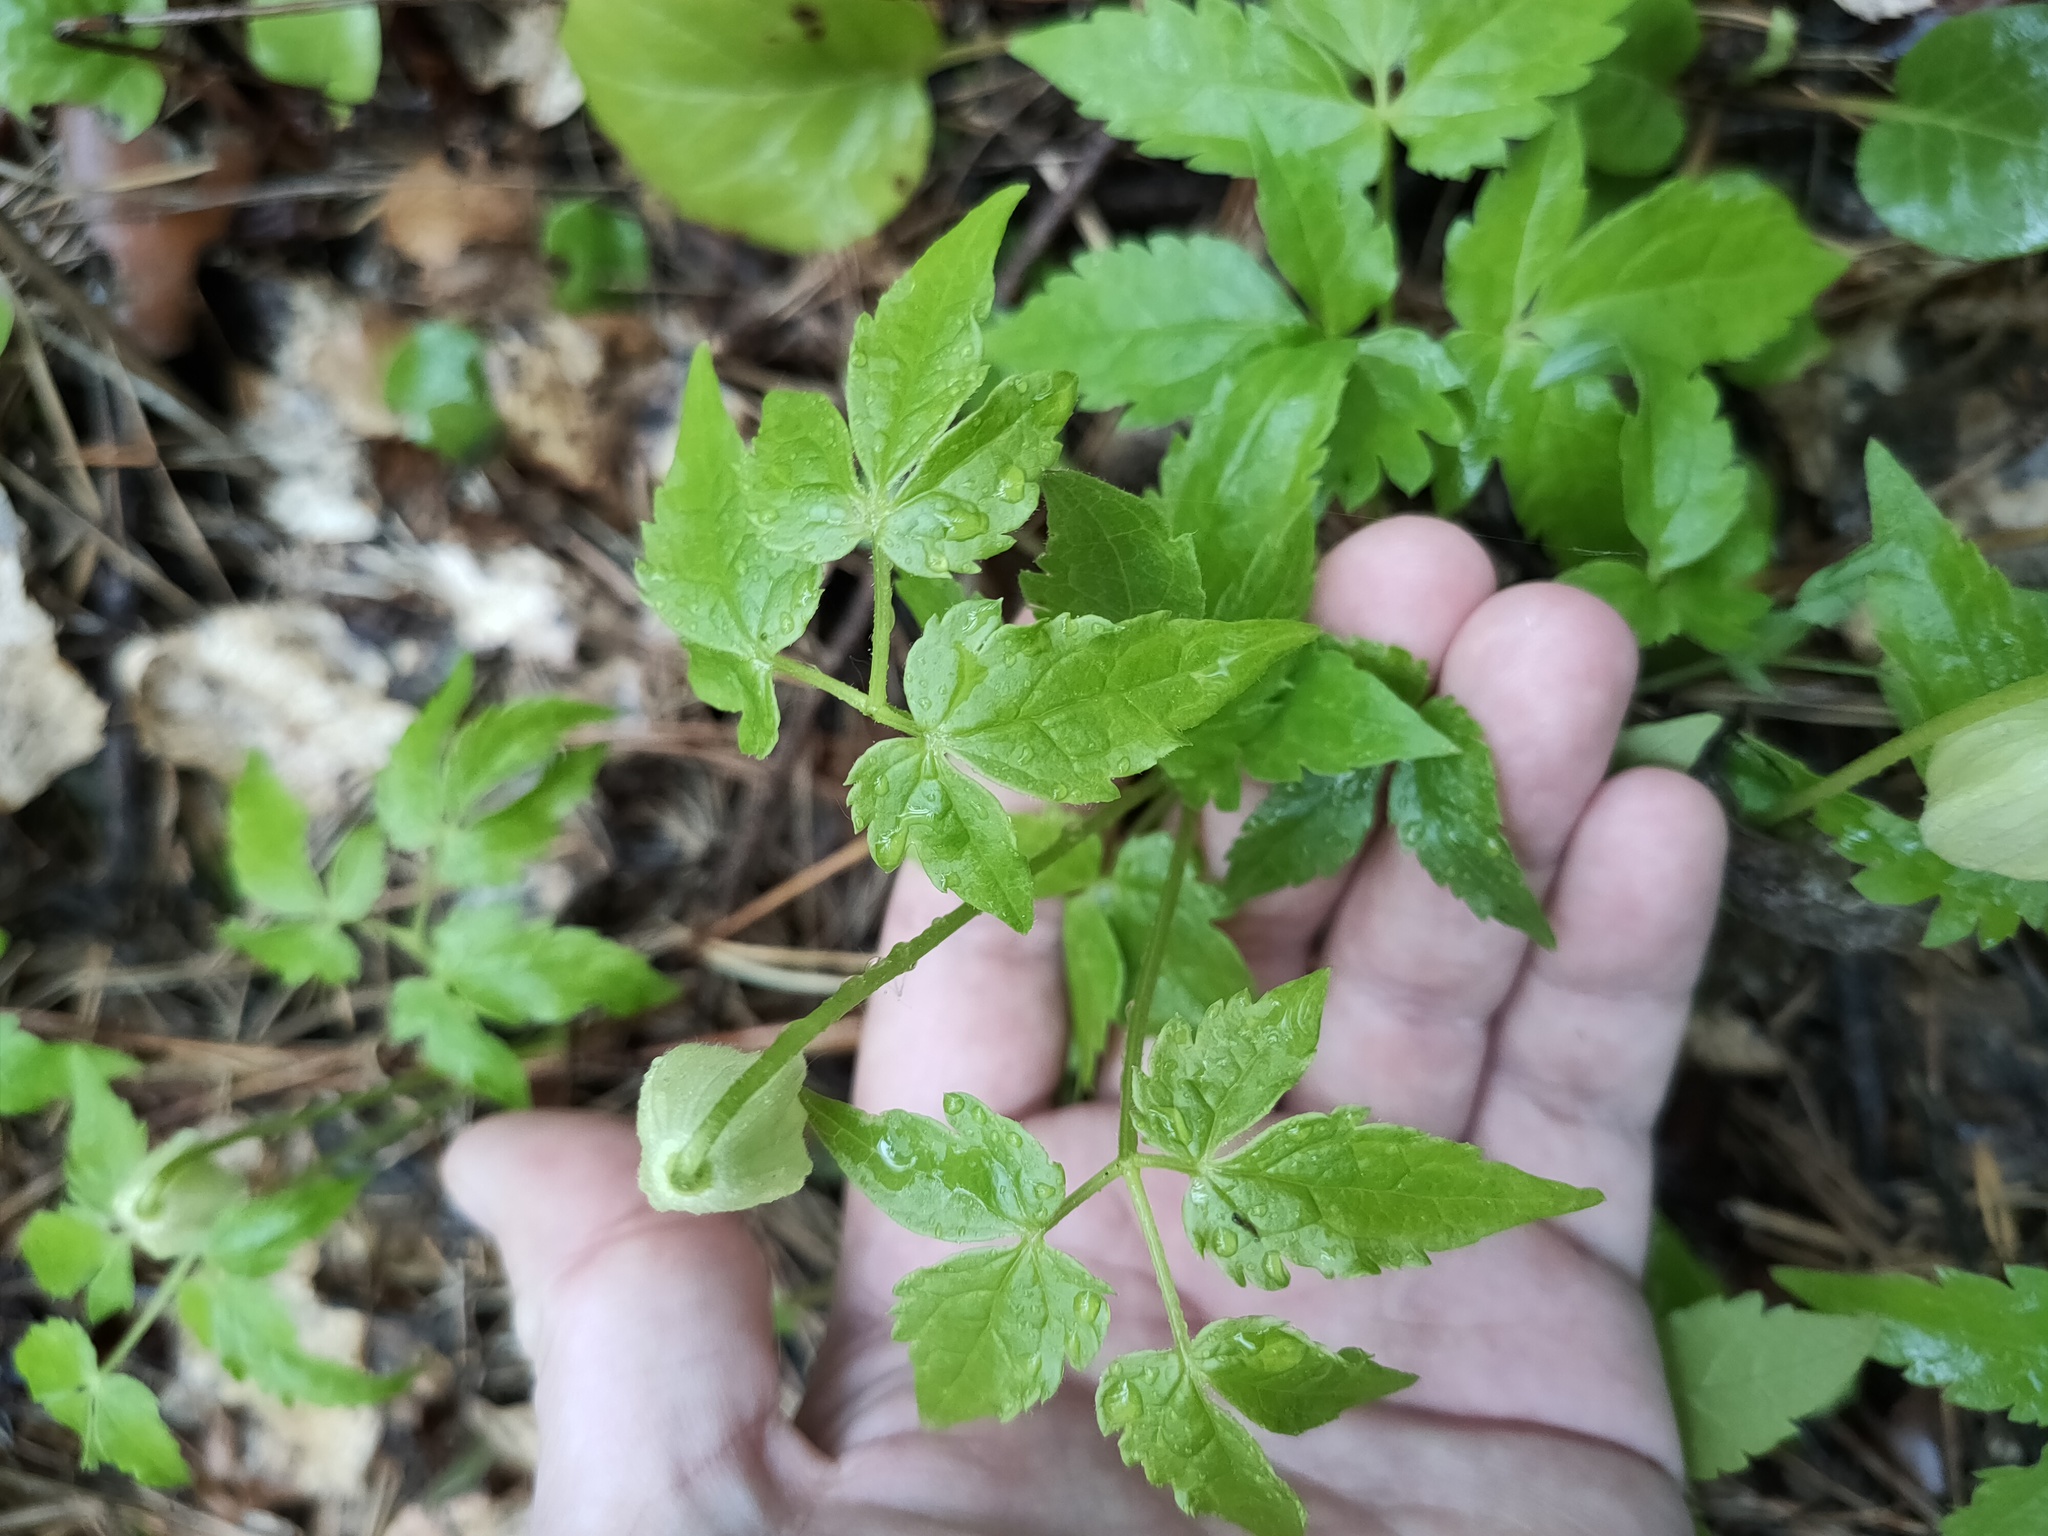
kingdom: Plantae
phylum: Tracheophyta
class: Magnoliopsida
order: Ranunculales
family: Ranunculaceae
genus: Clematis
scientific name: Clematis sibirica
